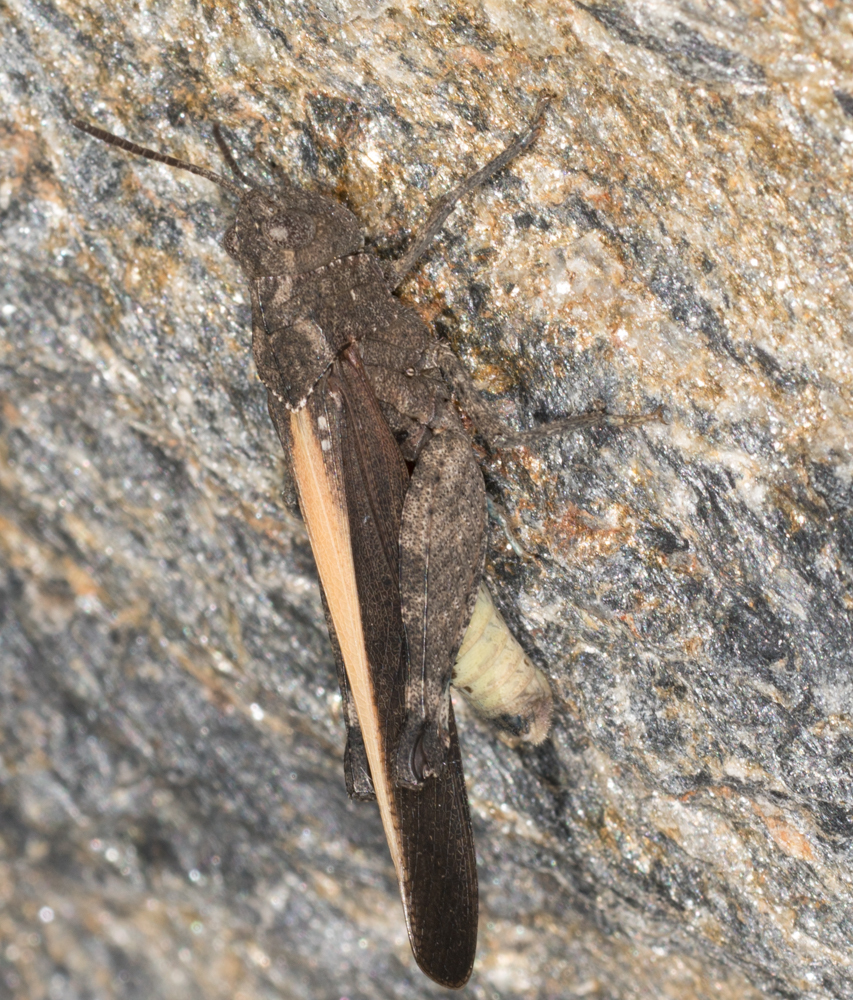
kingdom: Animalia
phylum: Arthropoda
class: Insecta
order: Orthoptera
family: Acrididae
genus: Arphia
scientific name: Arphia ramona
